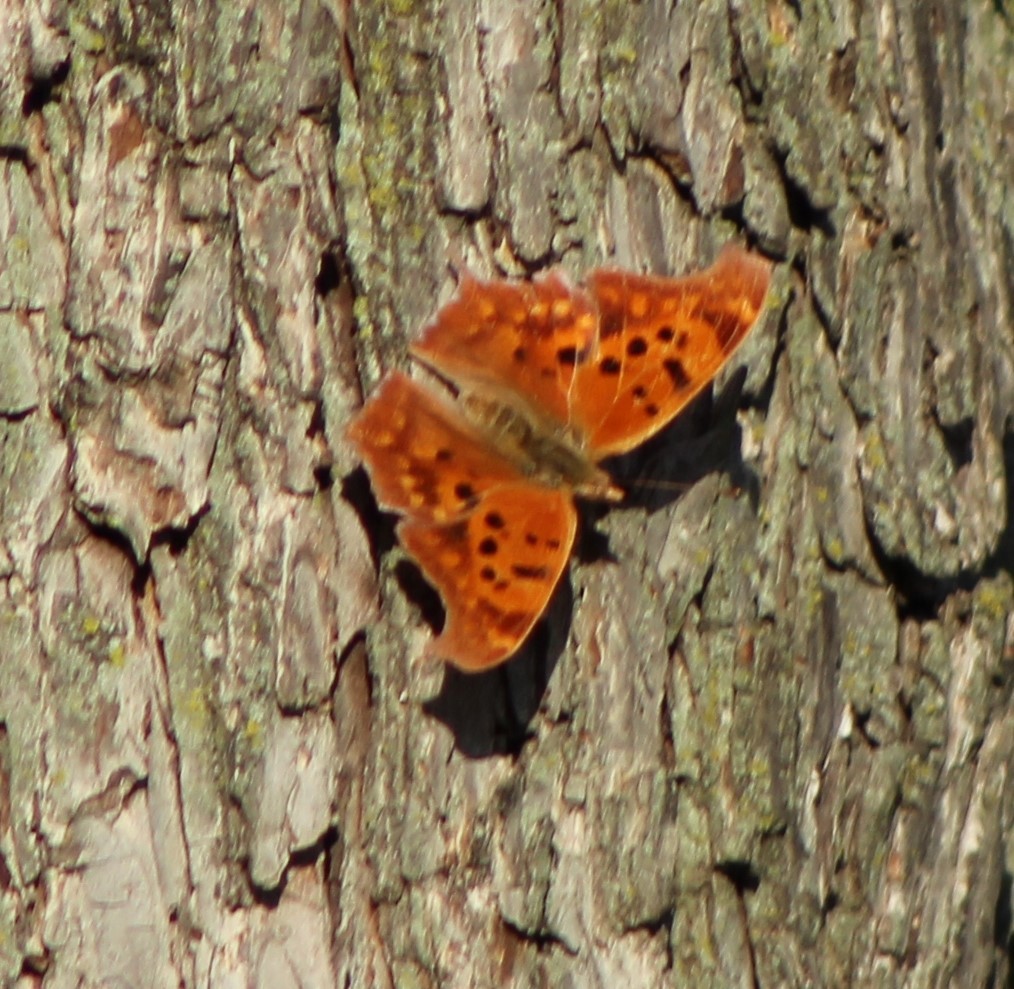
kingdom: Animalia
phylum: Arthropoda
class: Insecta
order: Lepidoptera
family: Nymphalidae
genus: Polygonia
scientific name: Polygonia interrogationis
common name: Question mark
